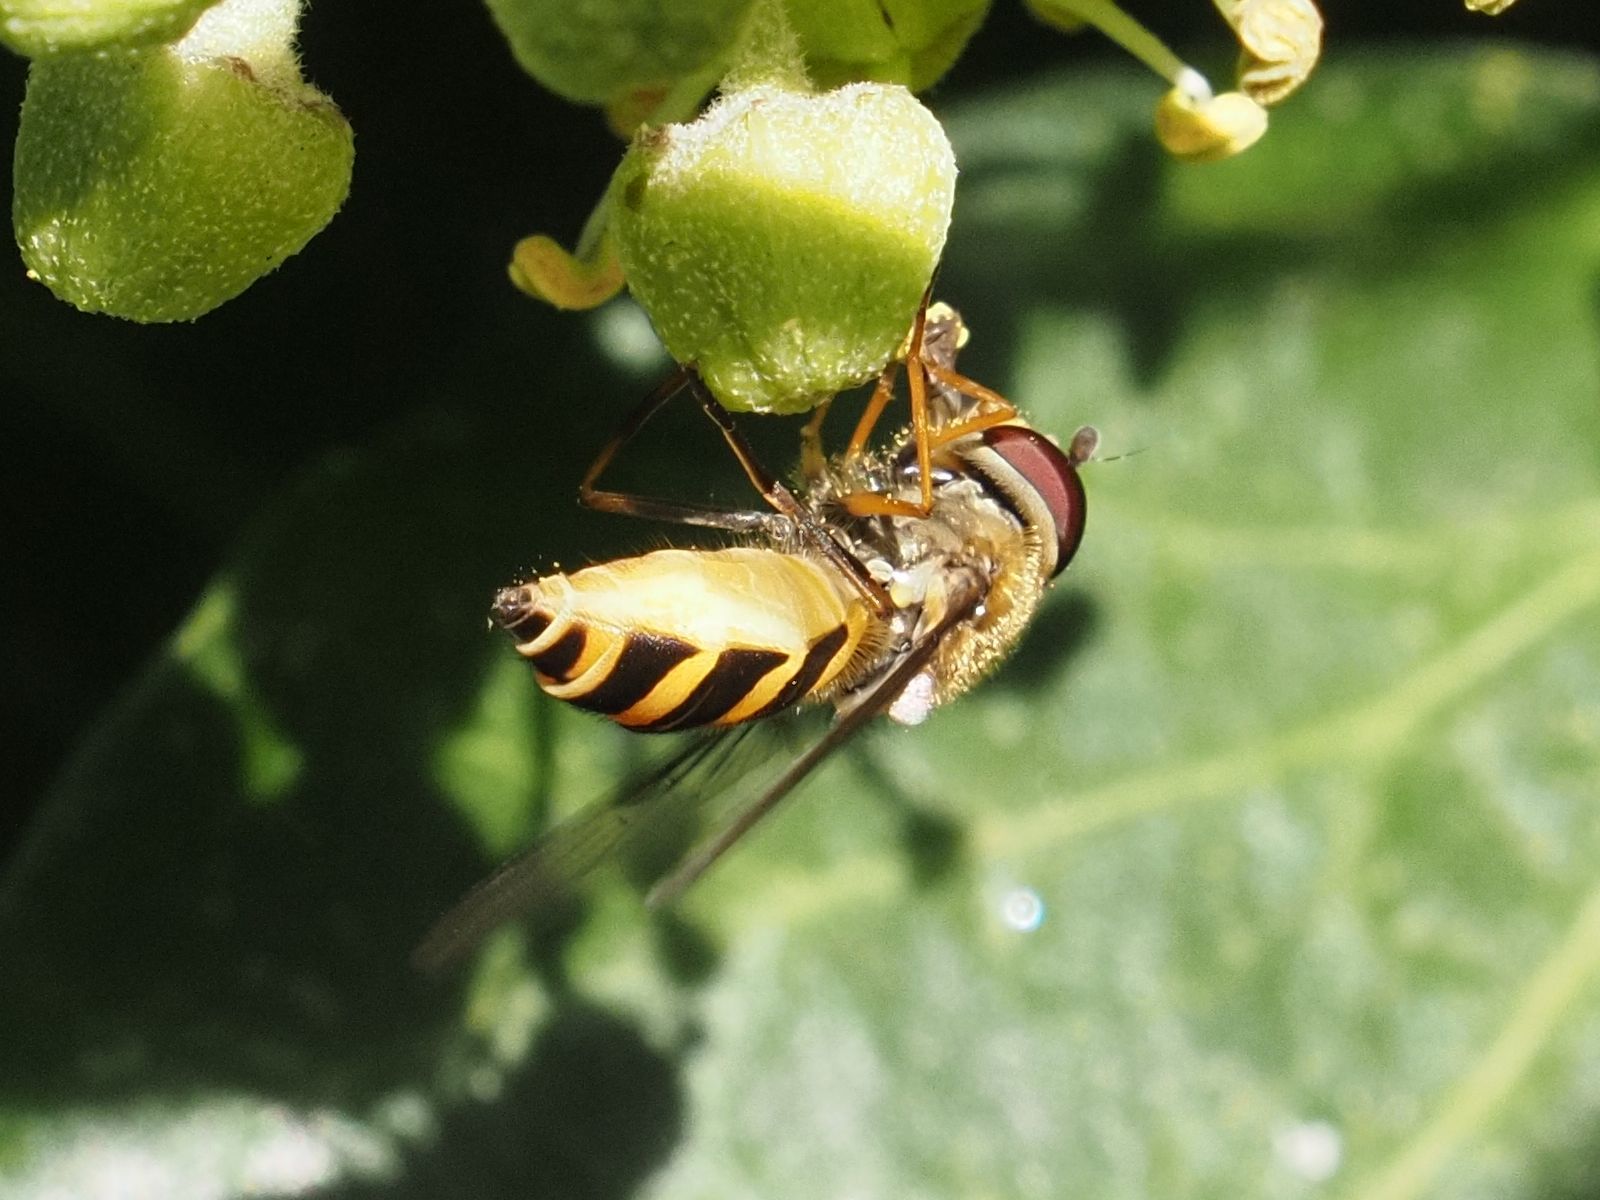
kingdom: Animalia
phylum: Arthropoda
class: Insecta
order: Diptera
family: Syrphidae
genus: Syrphus
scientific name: Syrphus
